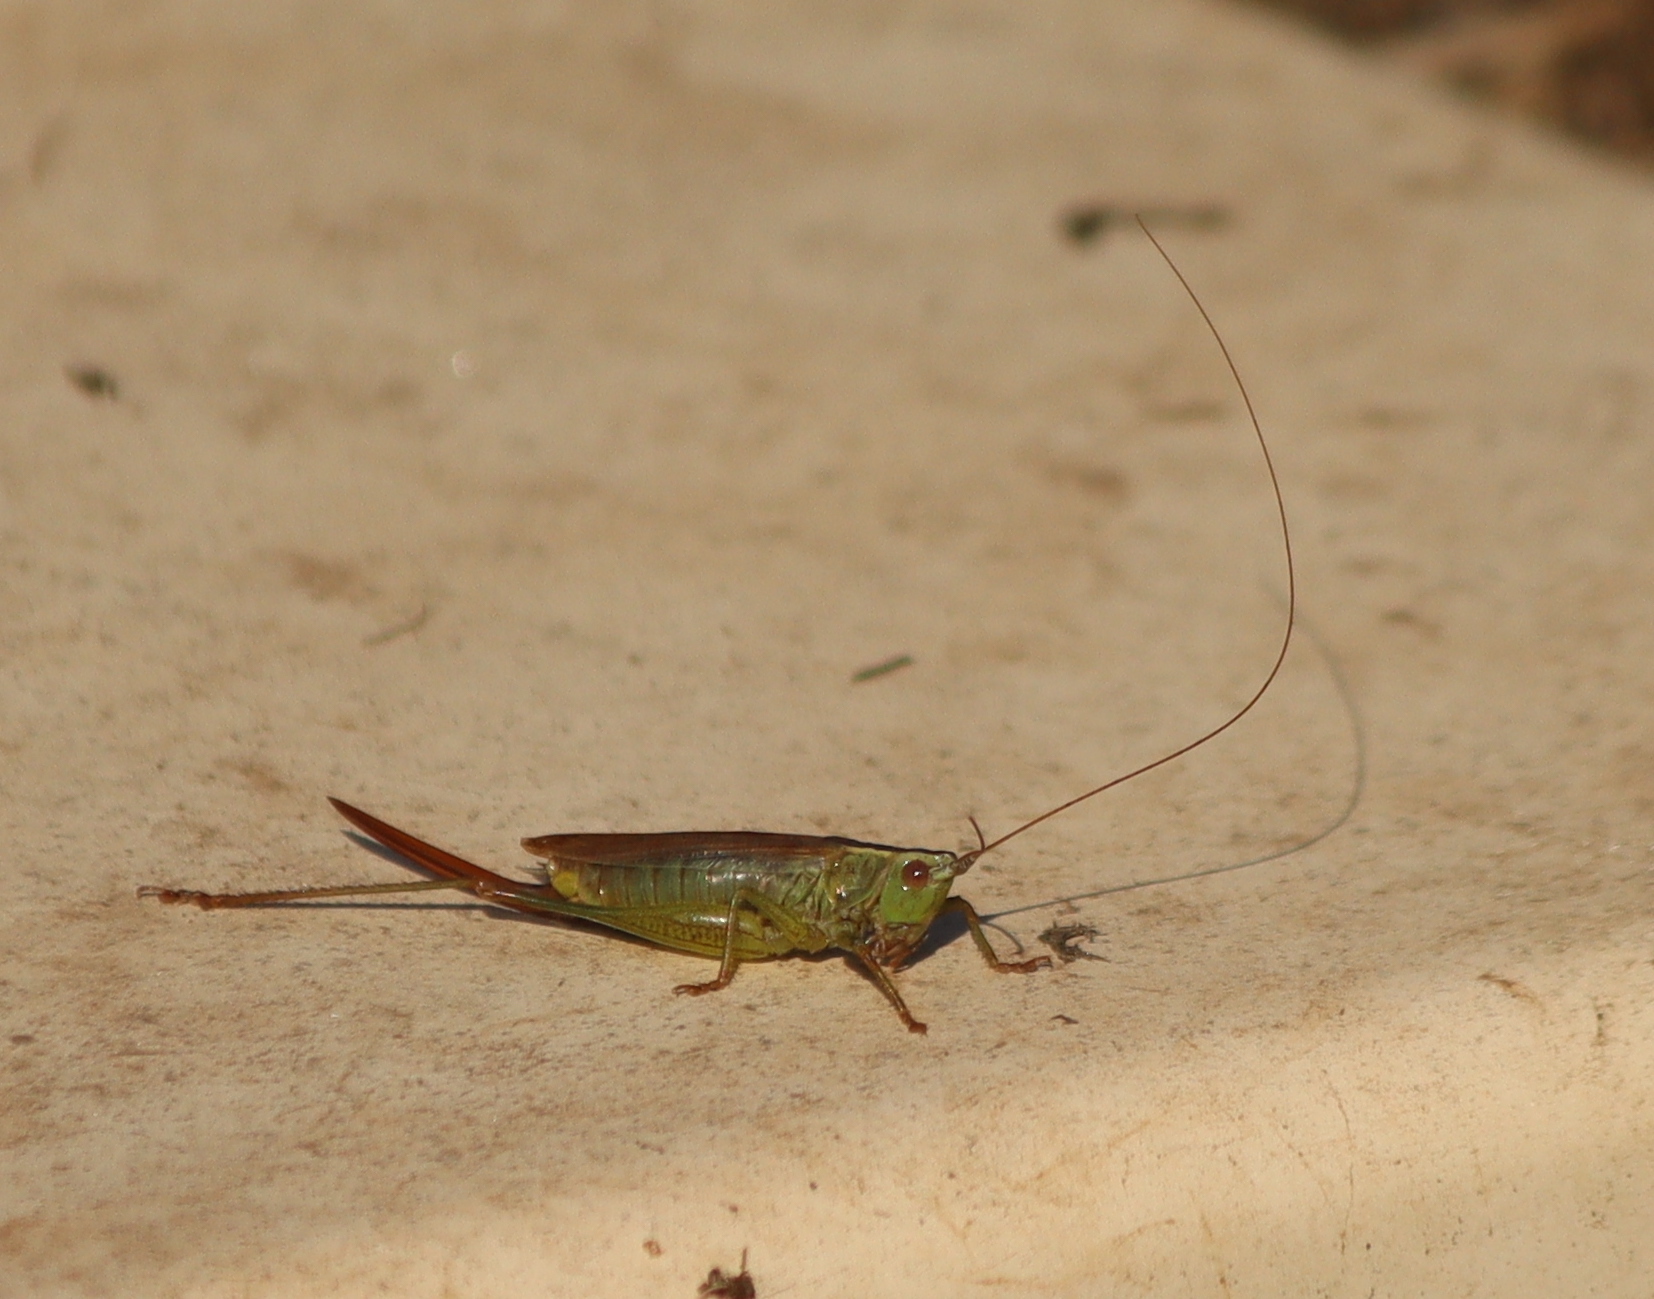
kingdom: Animalia
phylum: Arthropoda
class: Insecta
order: Orthoptera
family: Tettigoniidae
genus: Conocephalus
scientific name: Conocephalus fuscus
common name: Long-winged conehead
